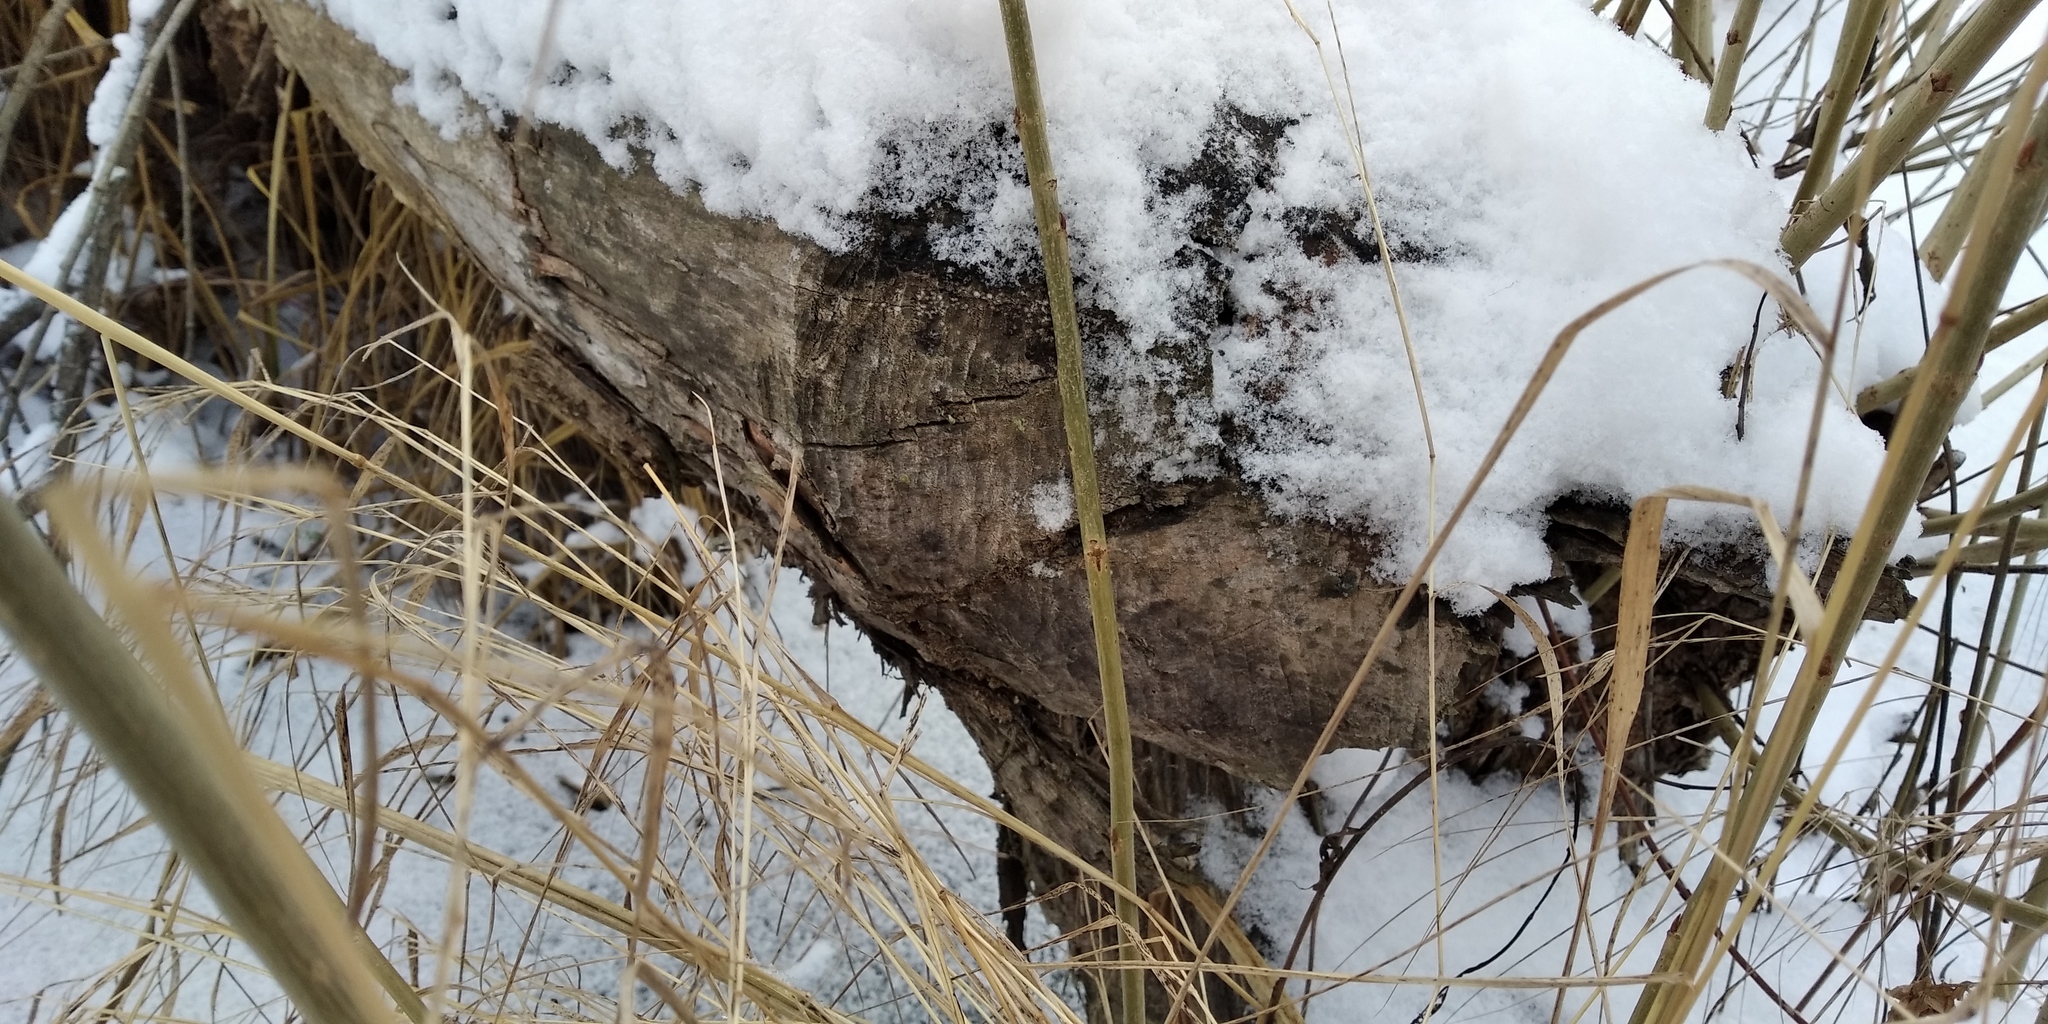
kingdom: Animalia
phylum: Chordata
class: Mammalia
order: Rodentia
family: Castoridae
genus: Castor
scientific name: Castor fiber
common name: Eurasian beaver
